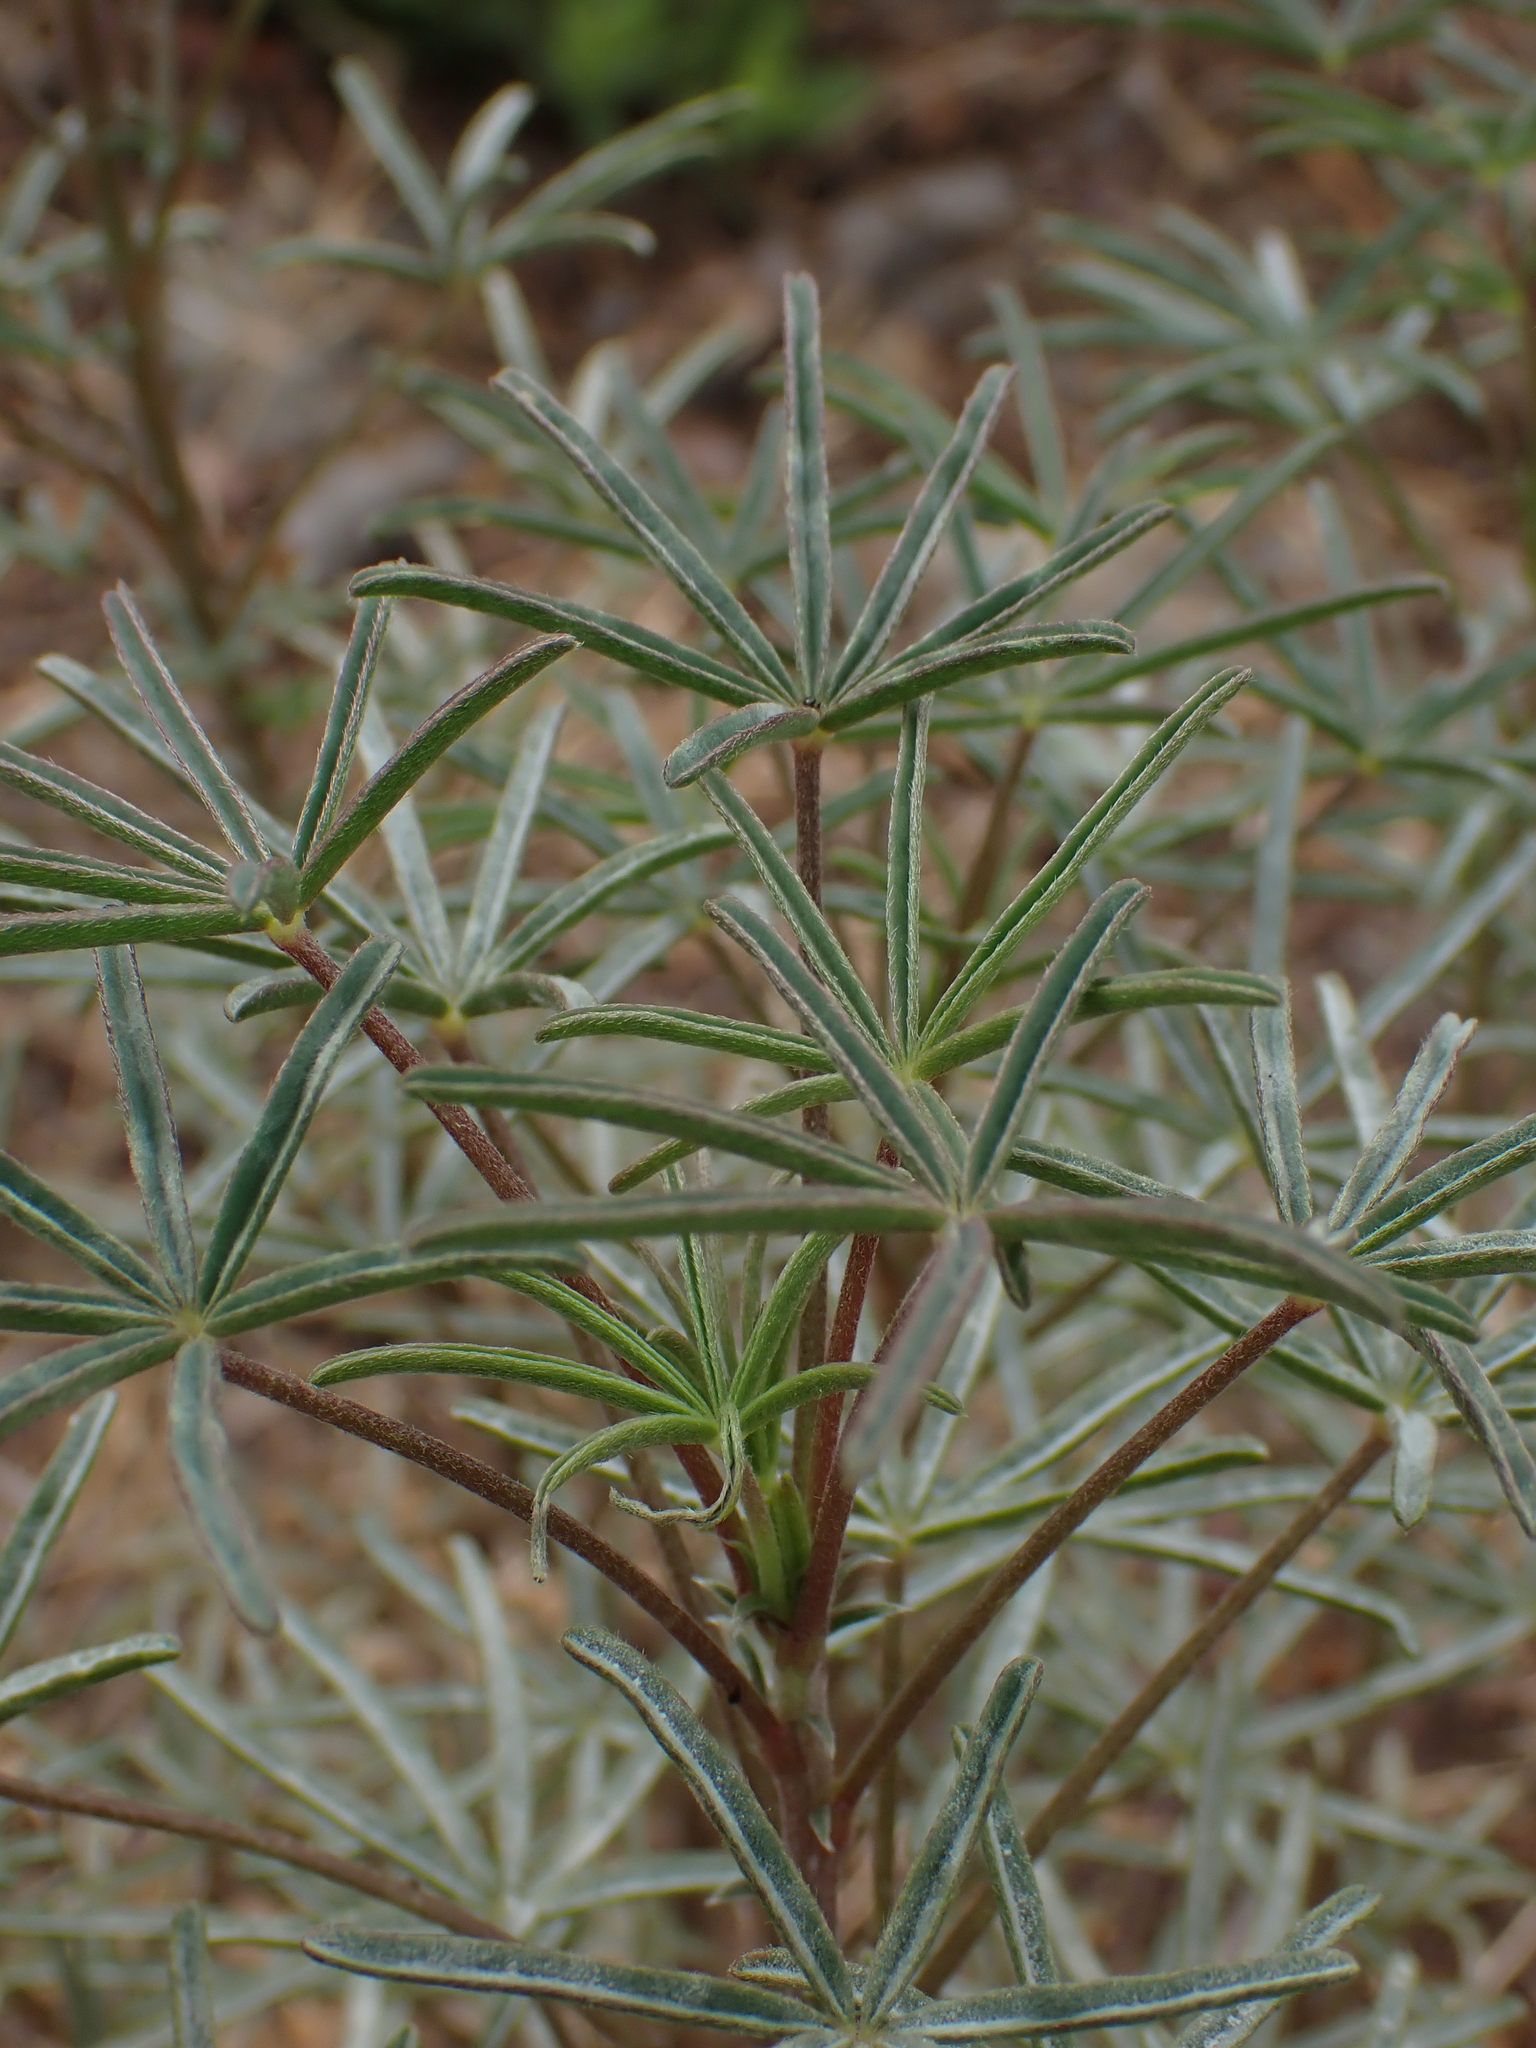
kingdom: Plantae
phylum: Tracheophyta
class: Magnoliopsida
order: Fabales
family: Fabaceae
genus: Lupinus
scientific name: Lupinus angustifolius
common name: Narrow-leaved lupin
